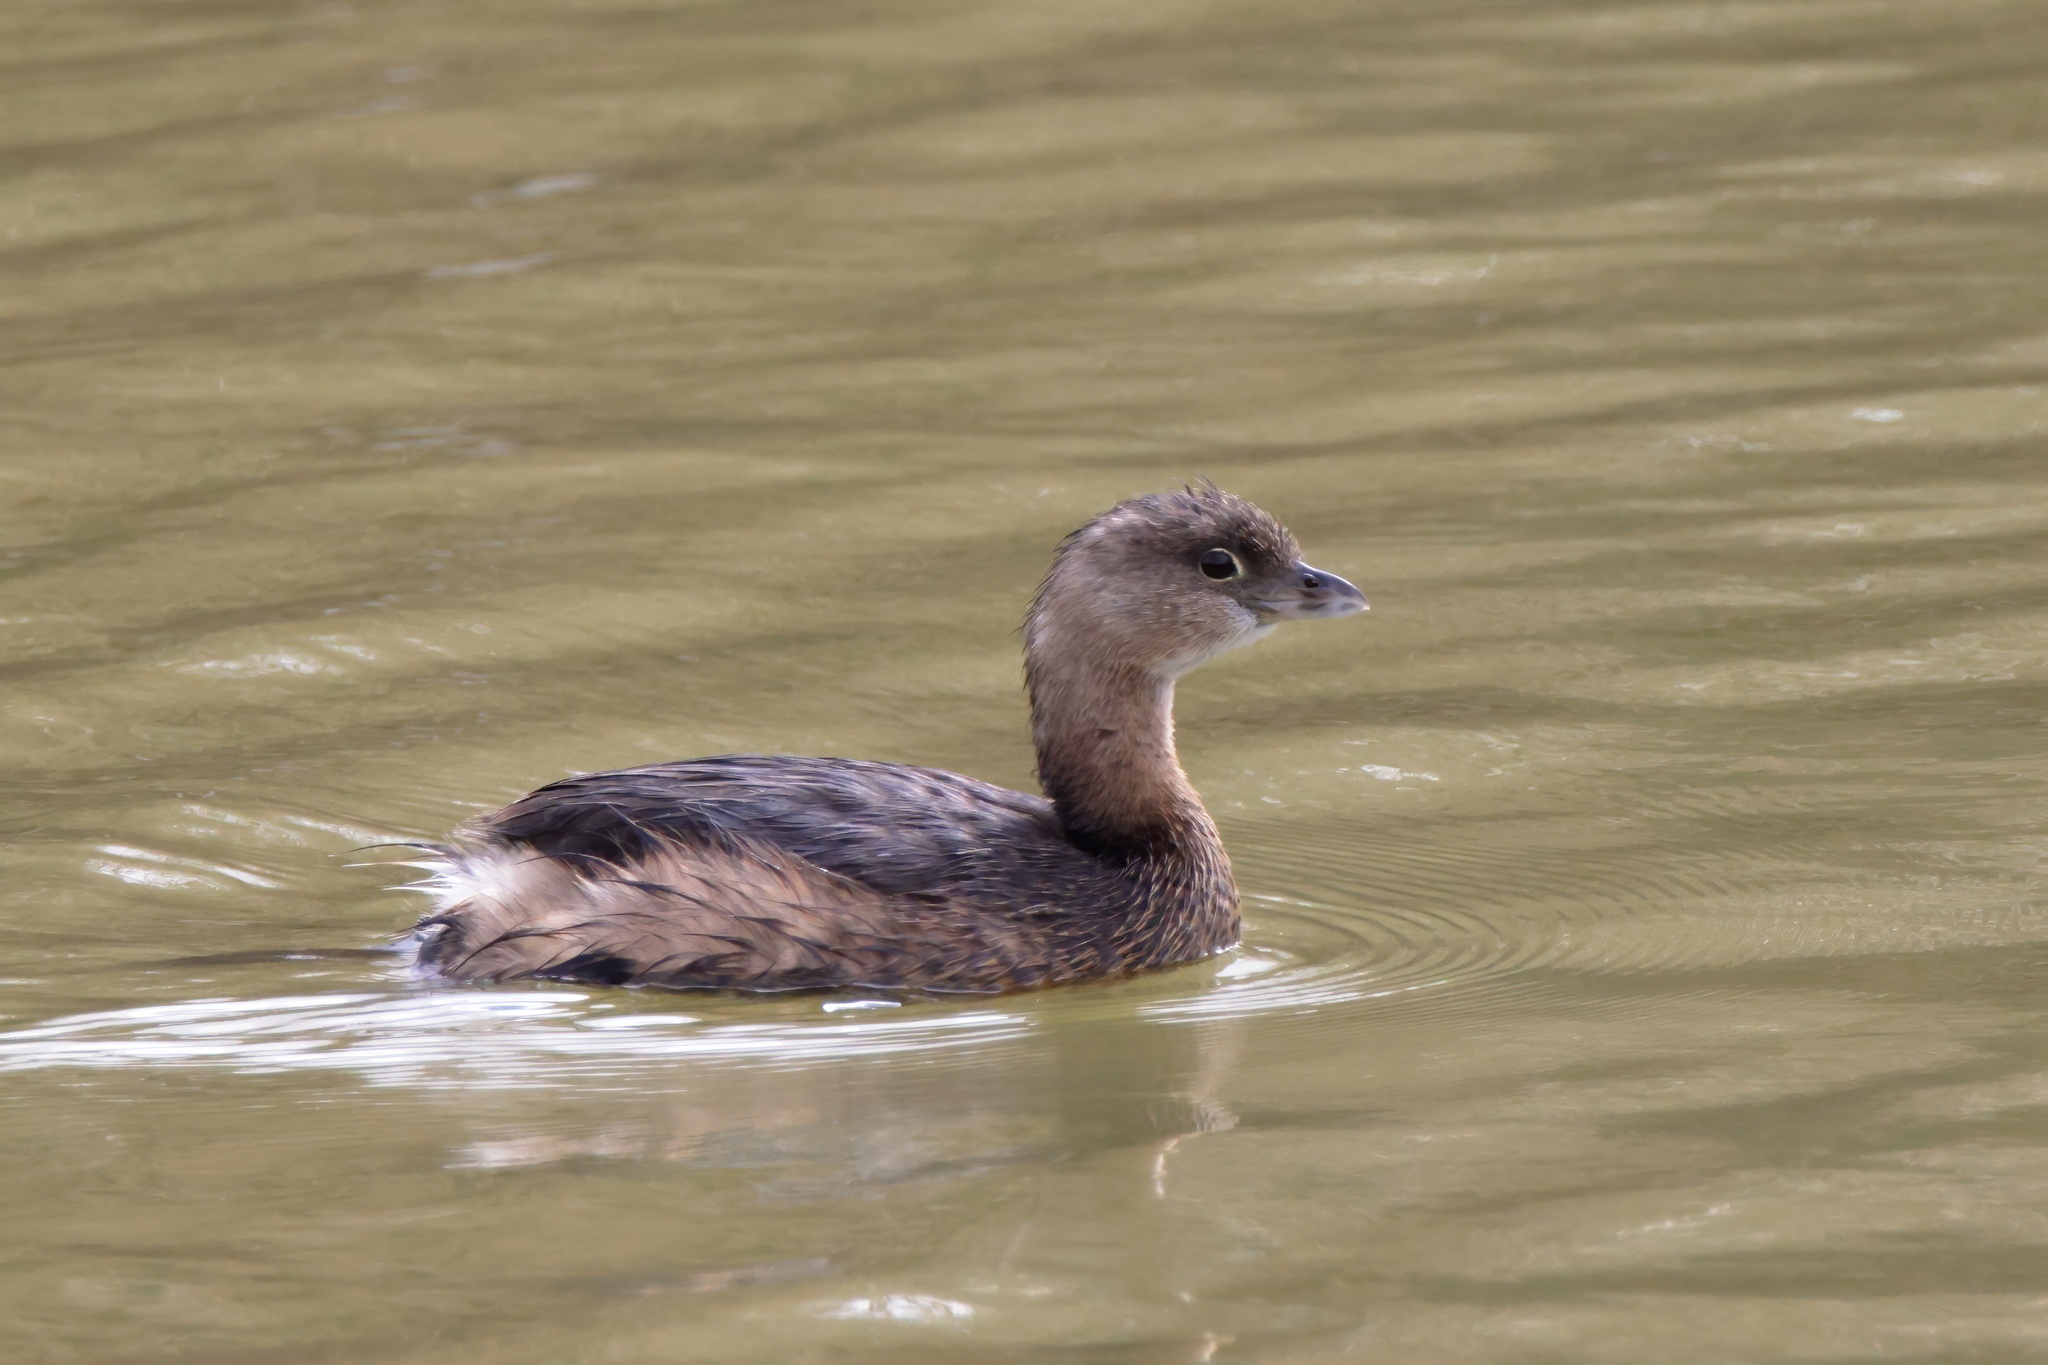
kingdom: Animalia
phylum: Chordata
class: Aves
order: Podicipediformes
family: Podicipedidae
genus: Podilymbus
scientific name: Podilymbus podiceps
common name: Pied-billed grebe
